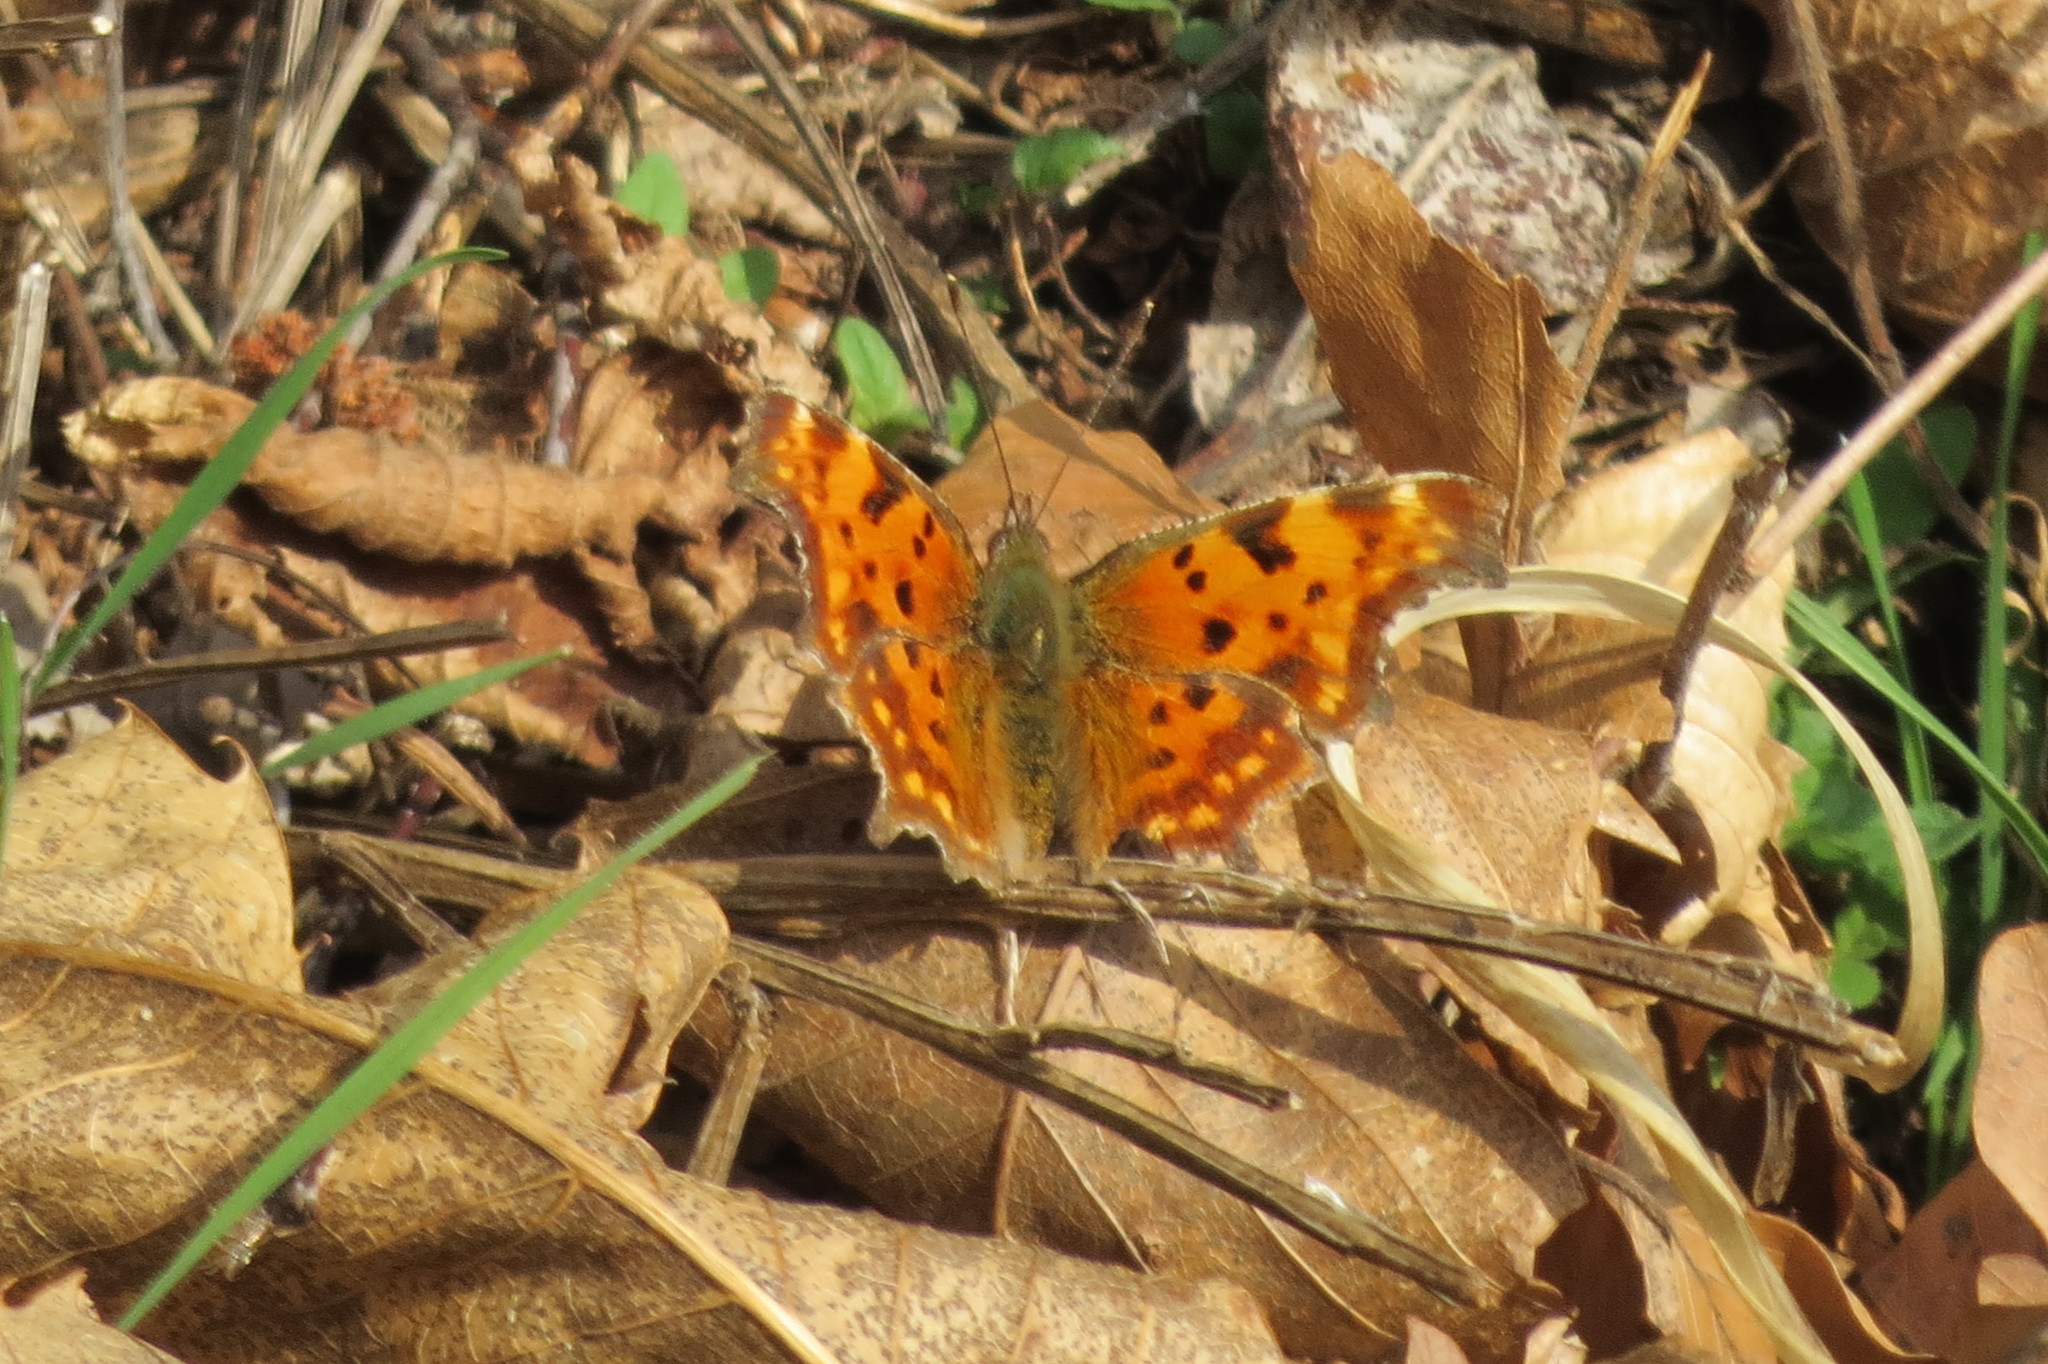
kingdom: Animalia
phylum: Arthropoda
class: Insecta
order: Lepidoptera
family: Nymphalidae
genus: Polygonia
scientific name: Polygonia c-album
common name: Comma
